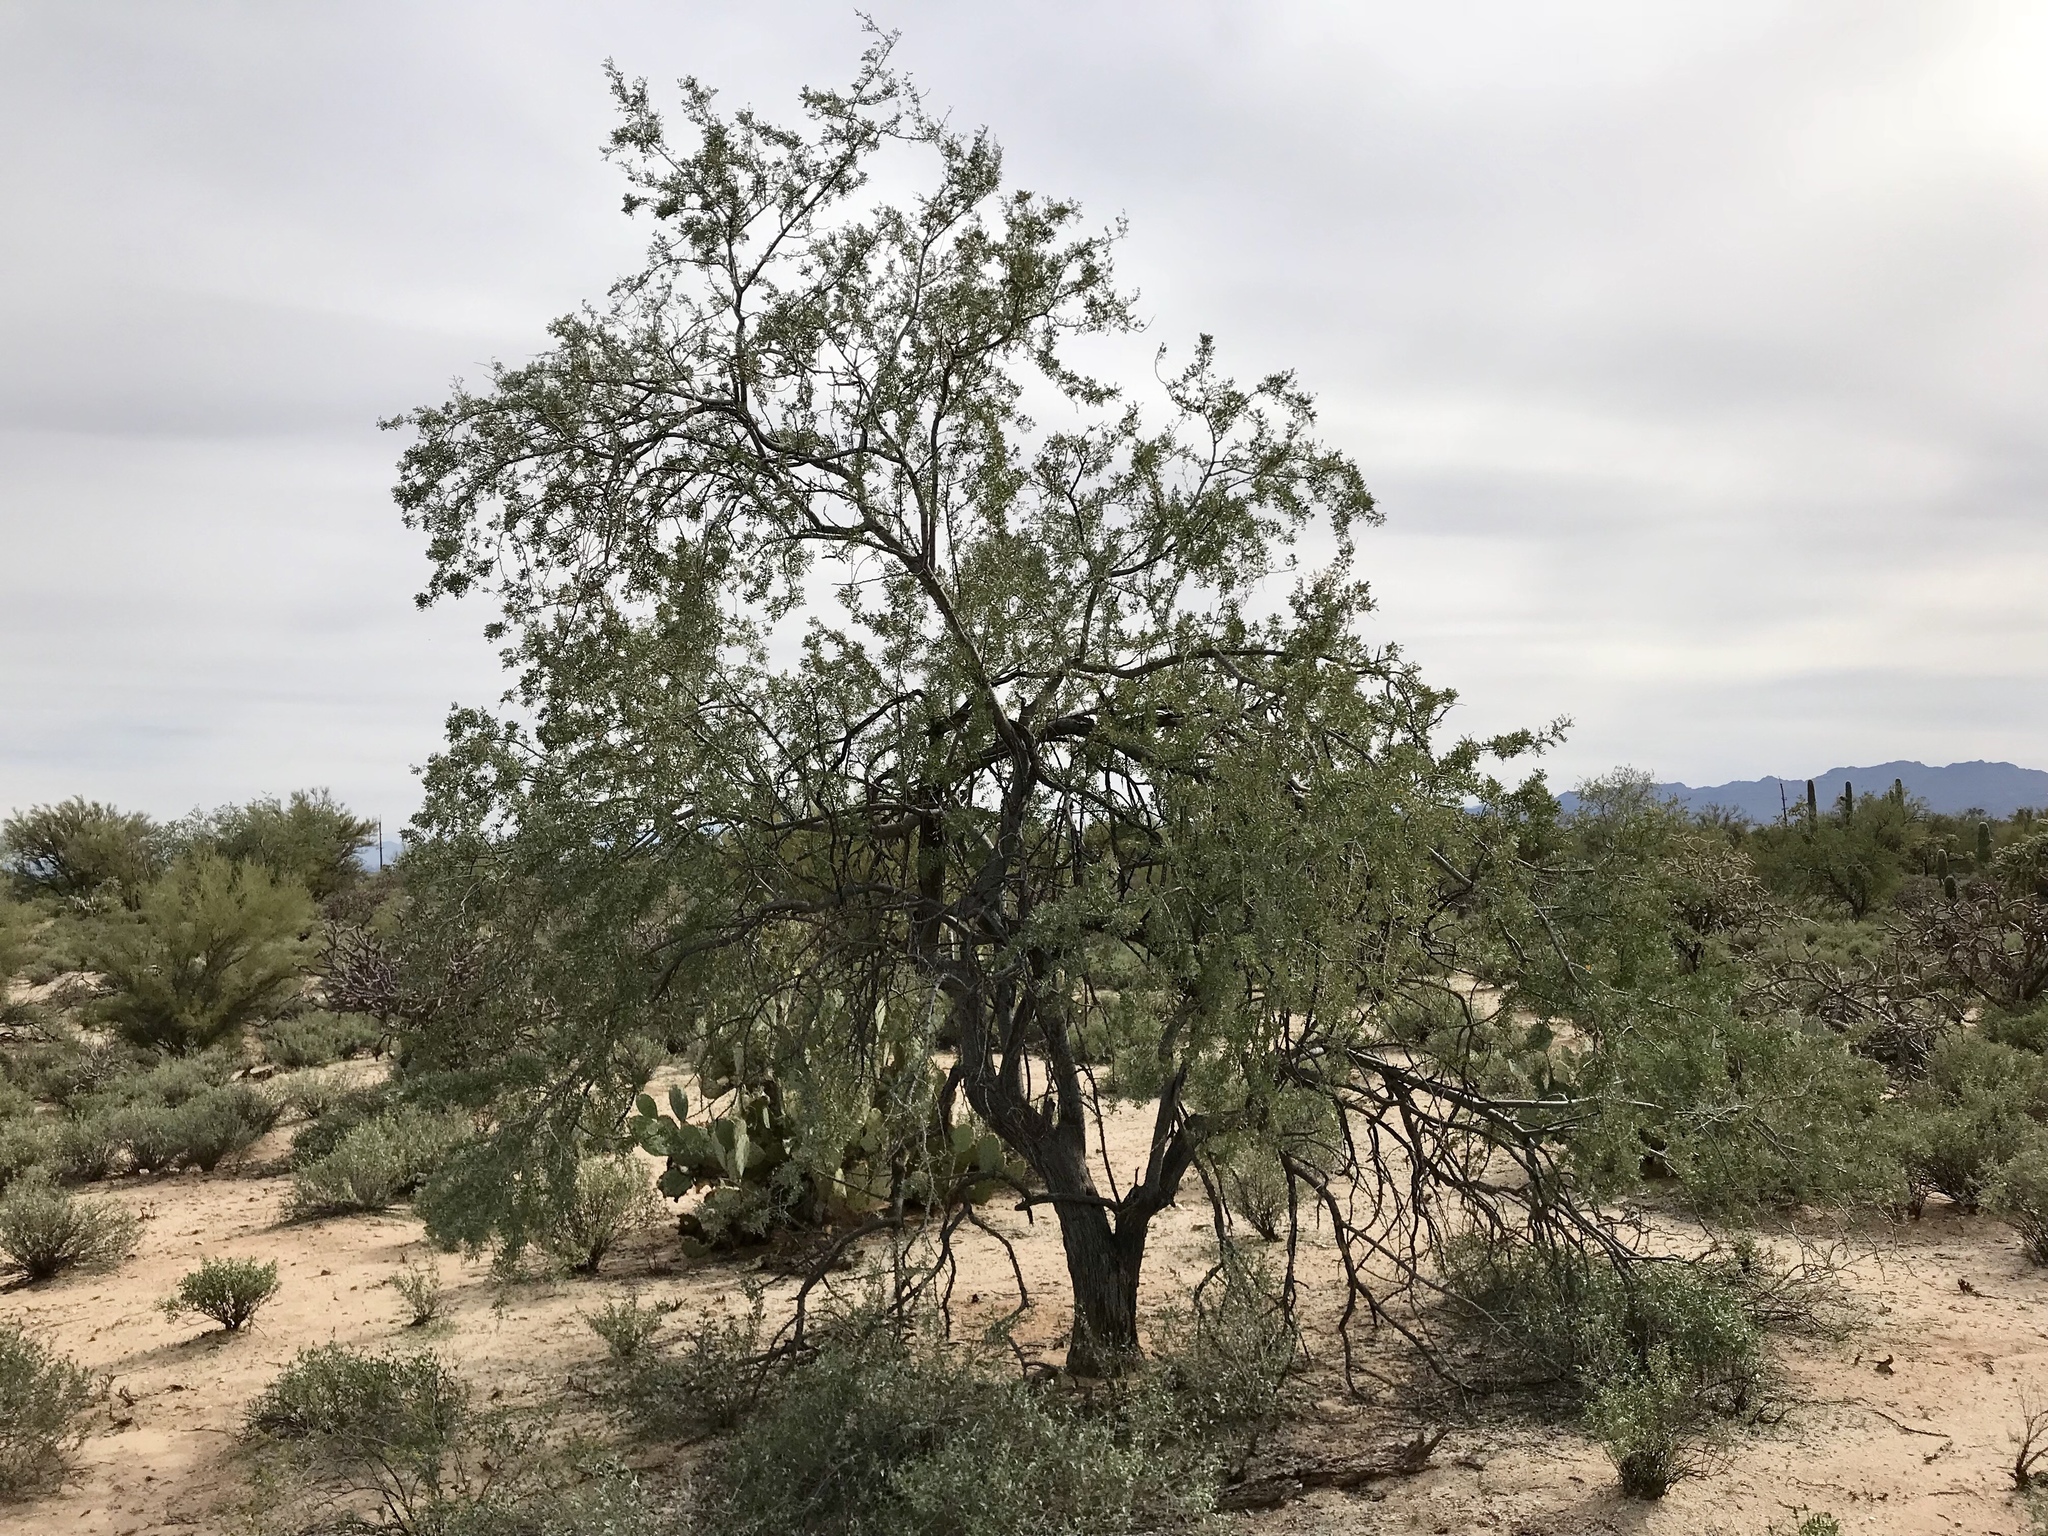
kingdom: Plantae
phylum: Tracheophyta
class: Magnoliopsida
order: Fabales
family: Fabaceae
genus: Olneya
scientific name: Olneya tesota
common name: Desert ironwood
